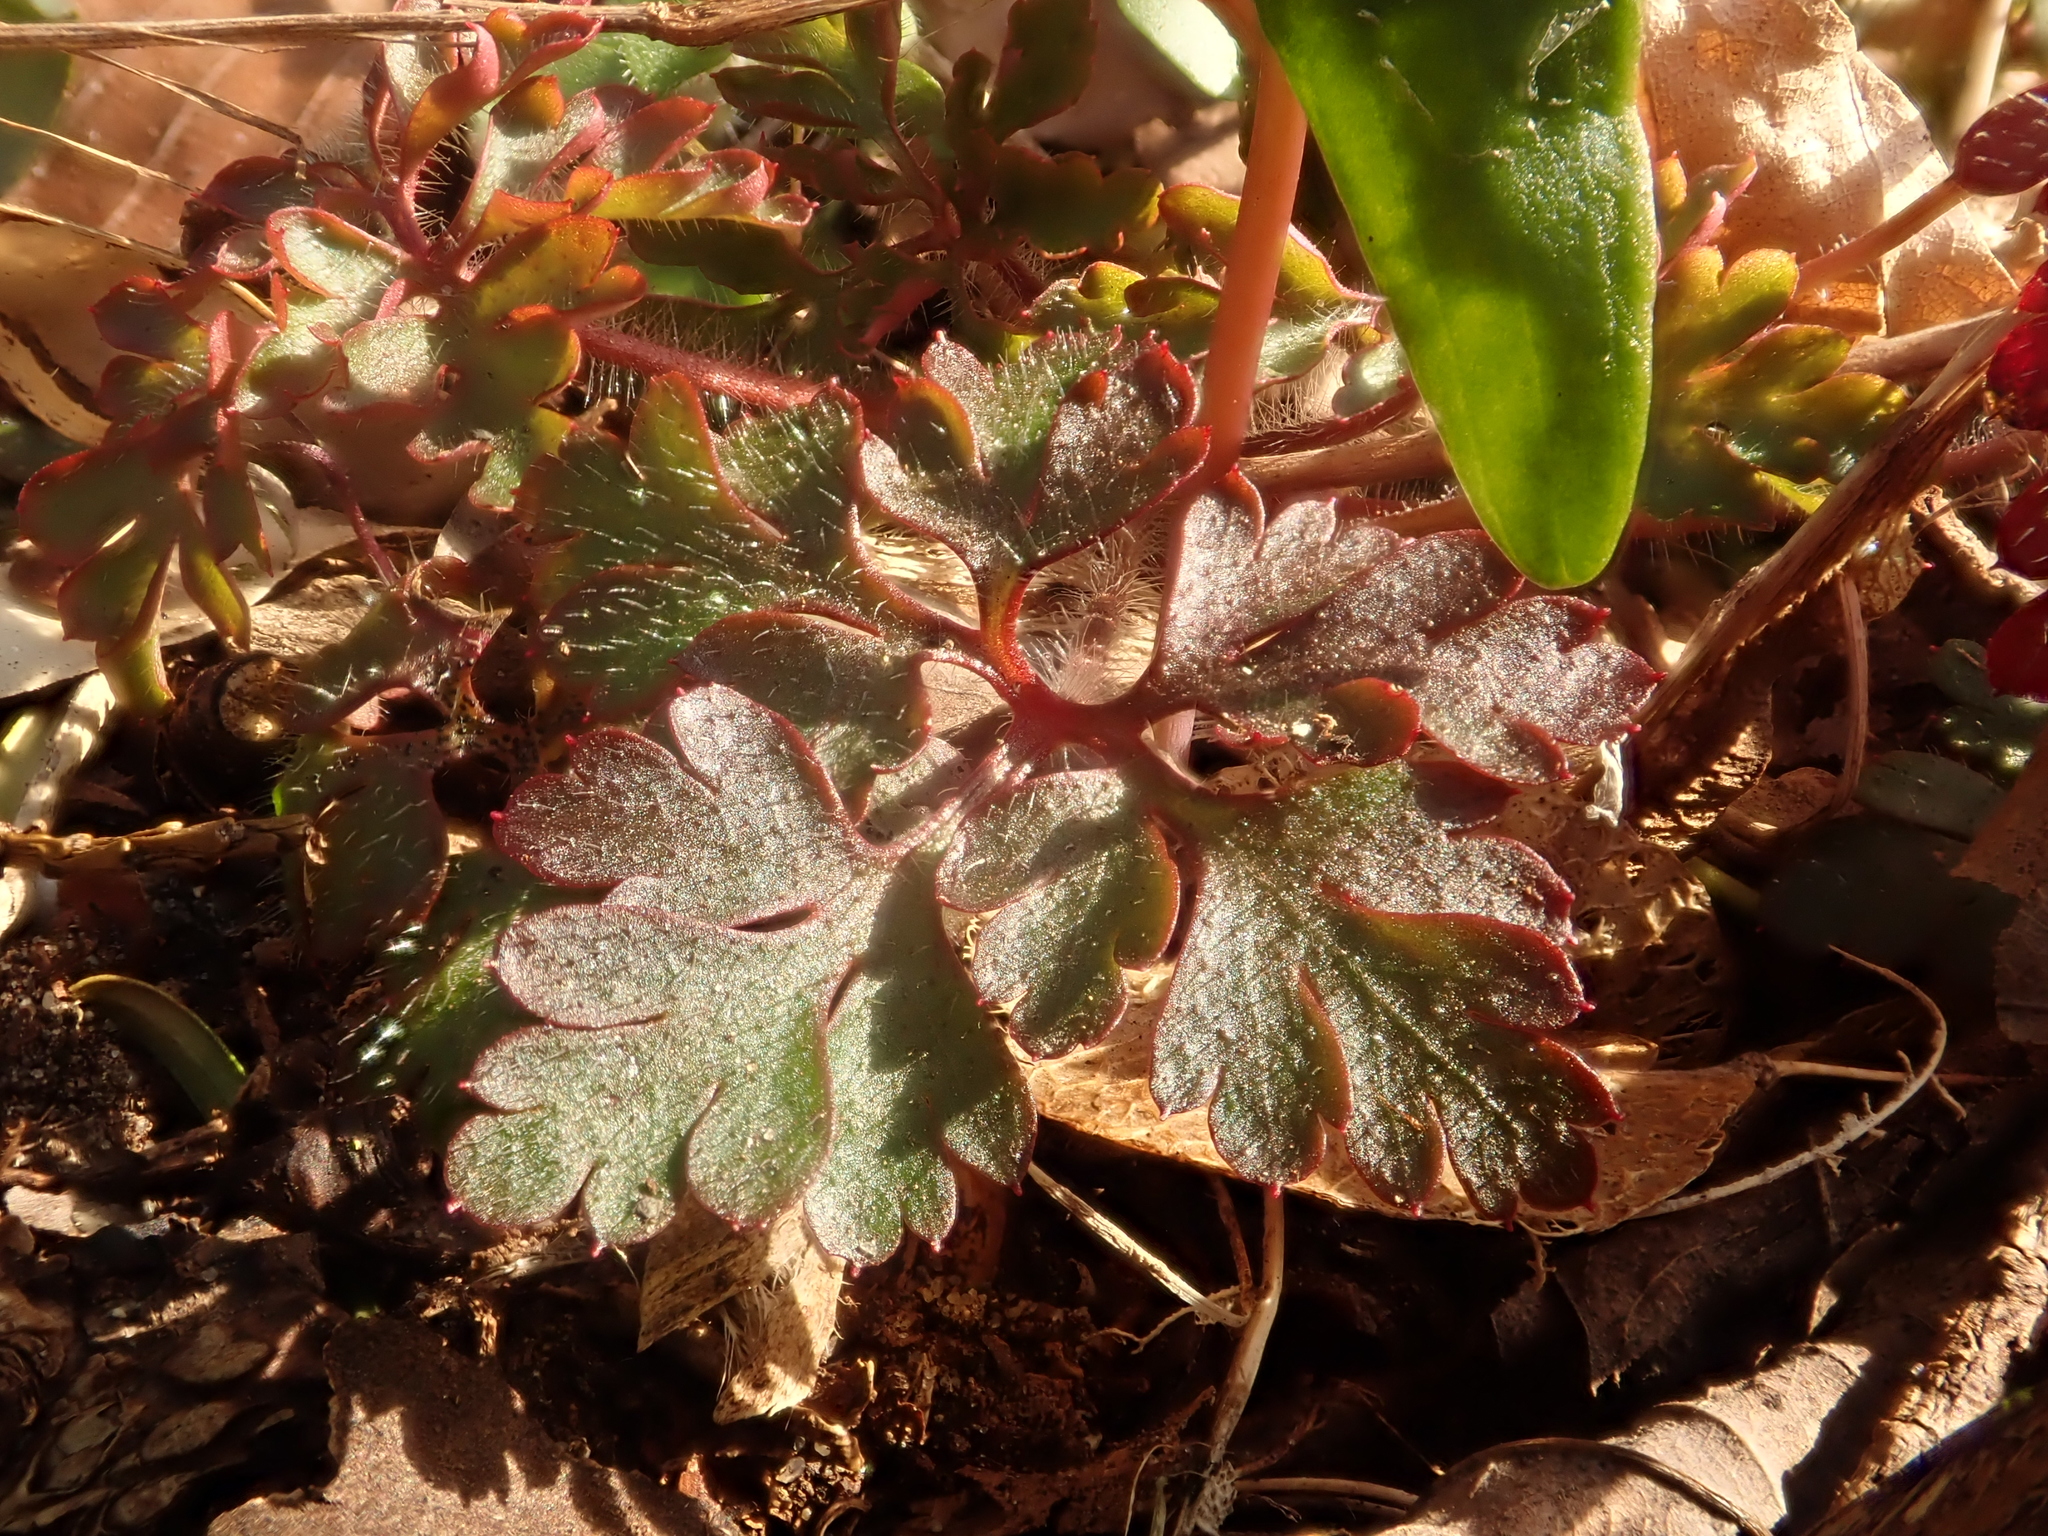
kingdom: Plantae
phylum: Tracheophyta
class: Magnoliopsida
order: Geraniales
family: Geraniaceae
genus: Geranium
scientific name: Geranium robertianum
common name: Herb-robert
